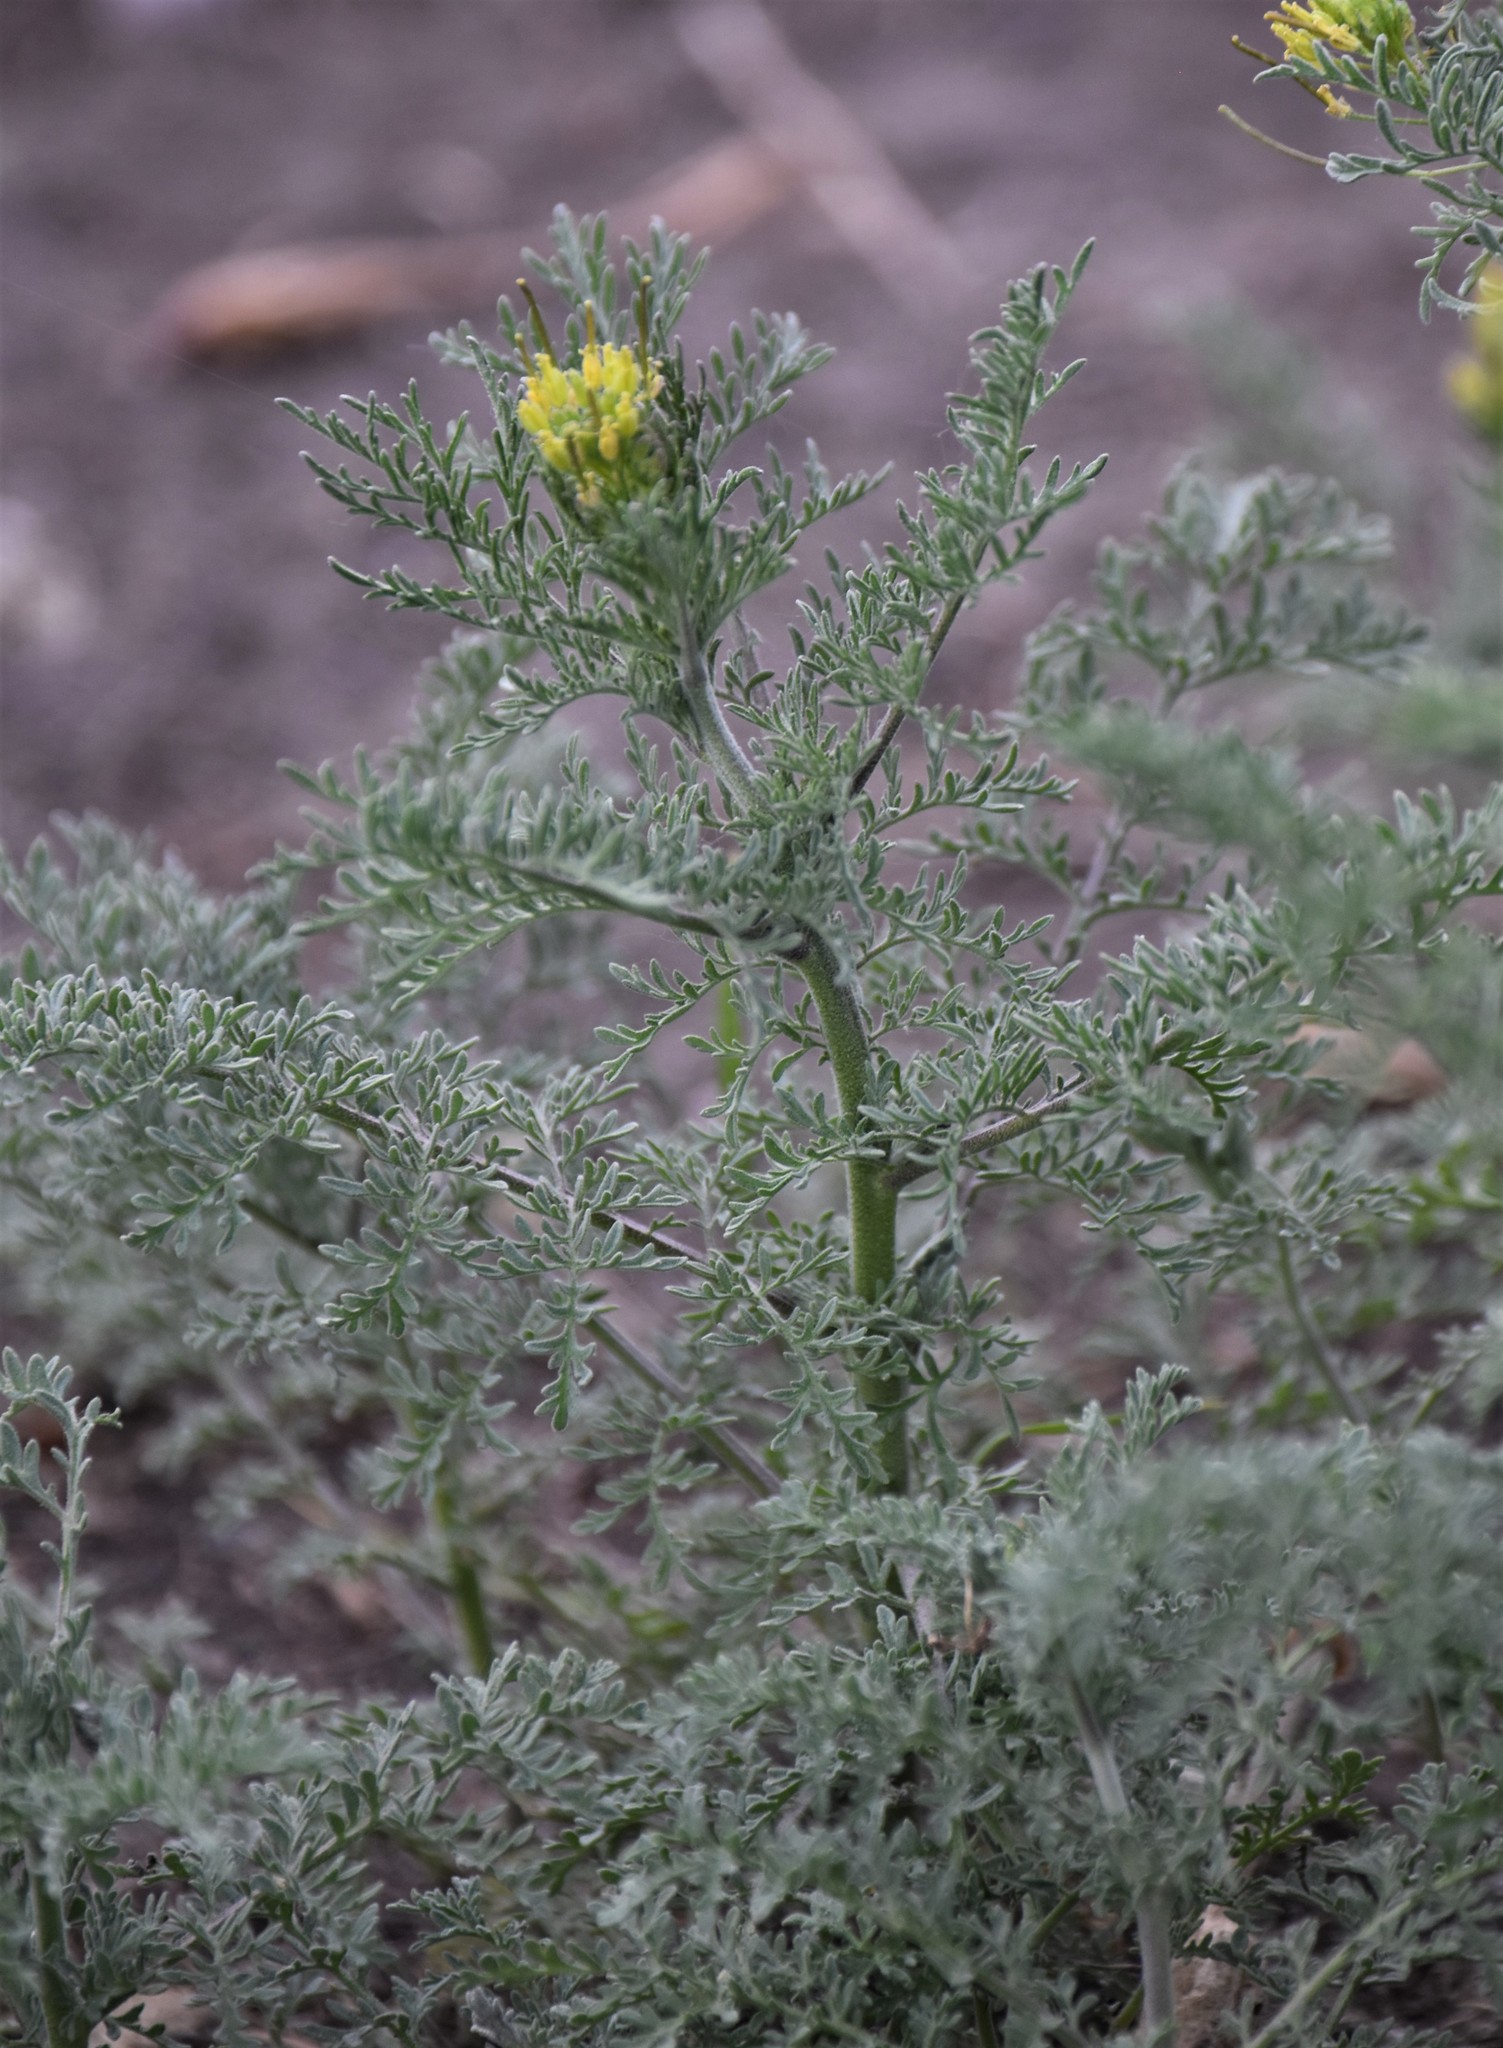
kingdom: Plantae
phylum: Tracheophyta
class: Magnoliopsida
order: Brassicales
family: Brassicaceae
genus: Descurainia
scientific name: Descurainia sophia
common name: Flixweed
